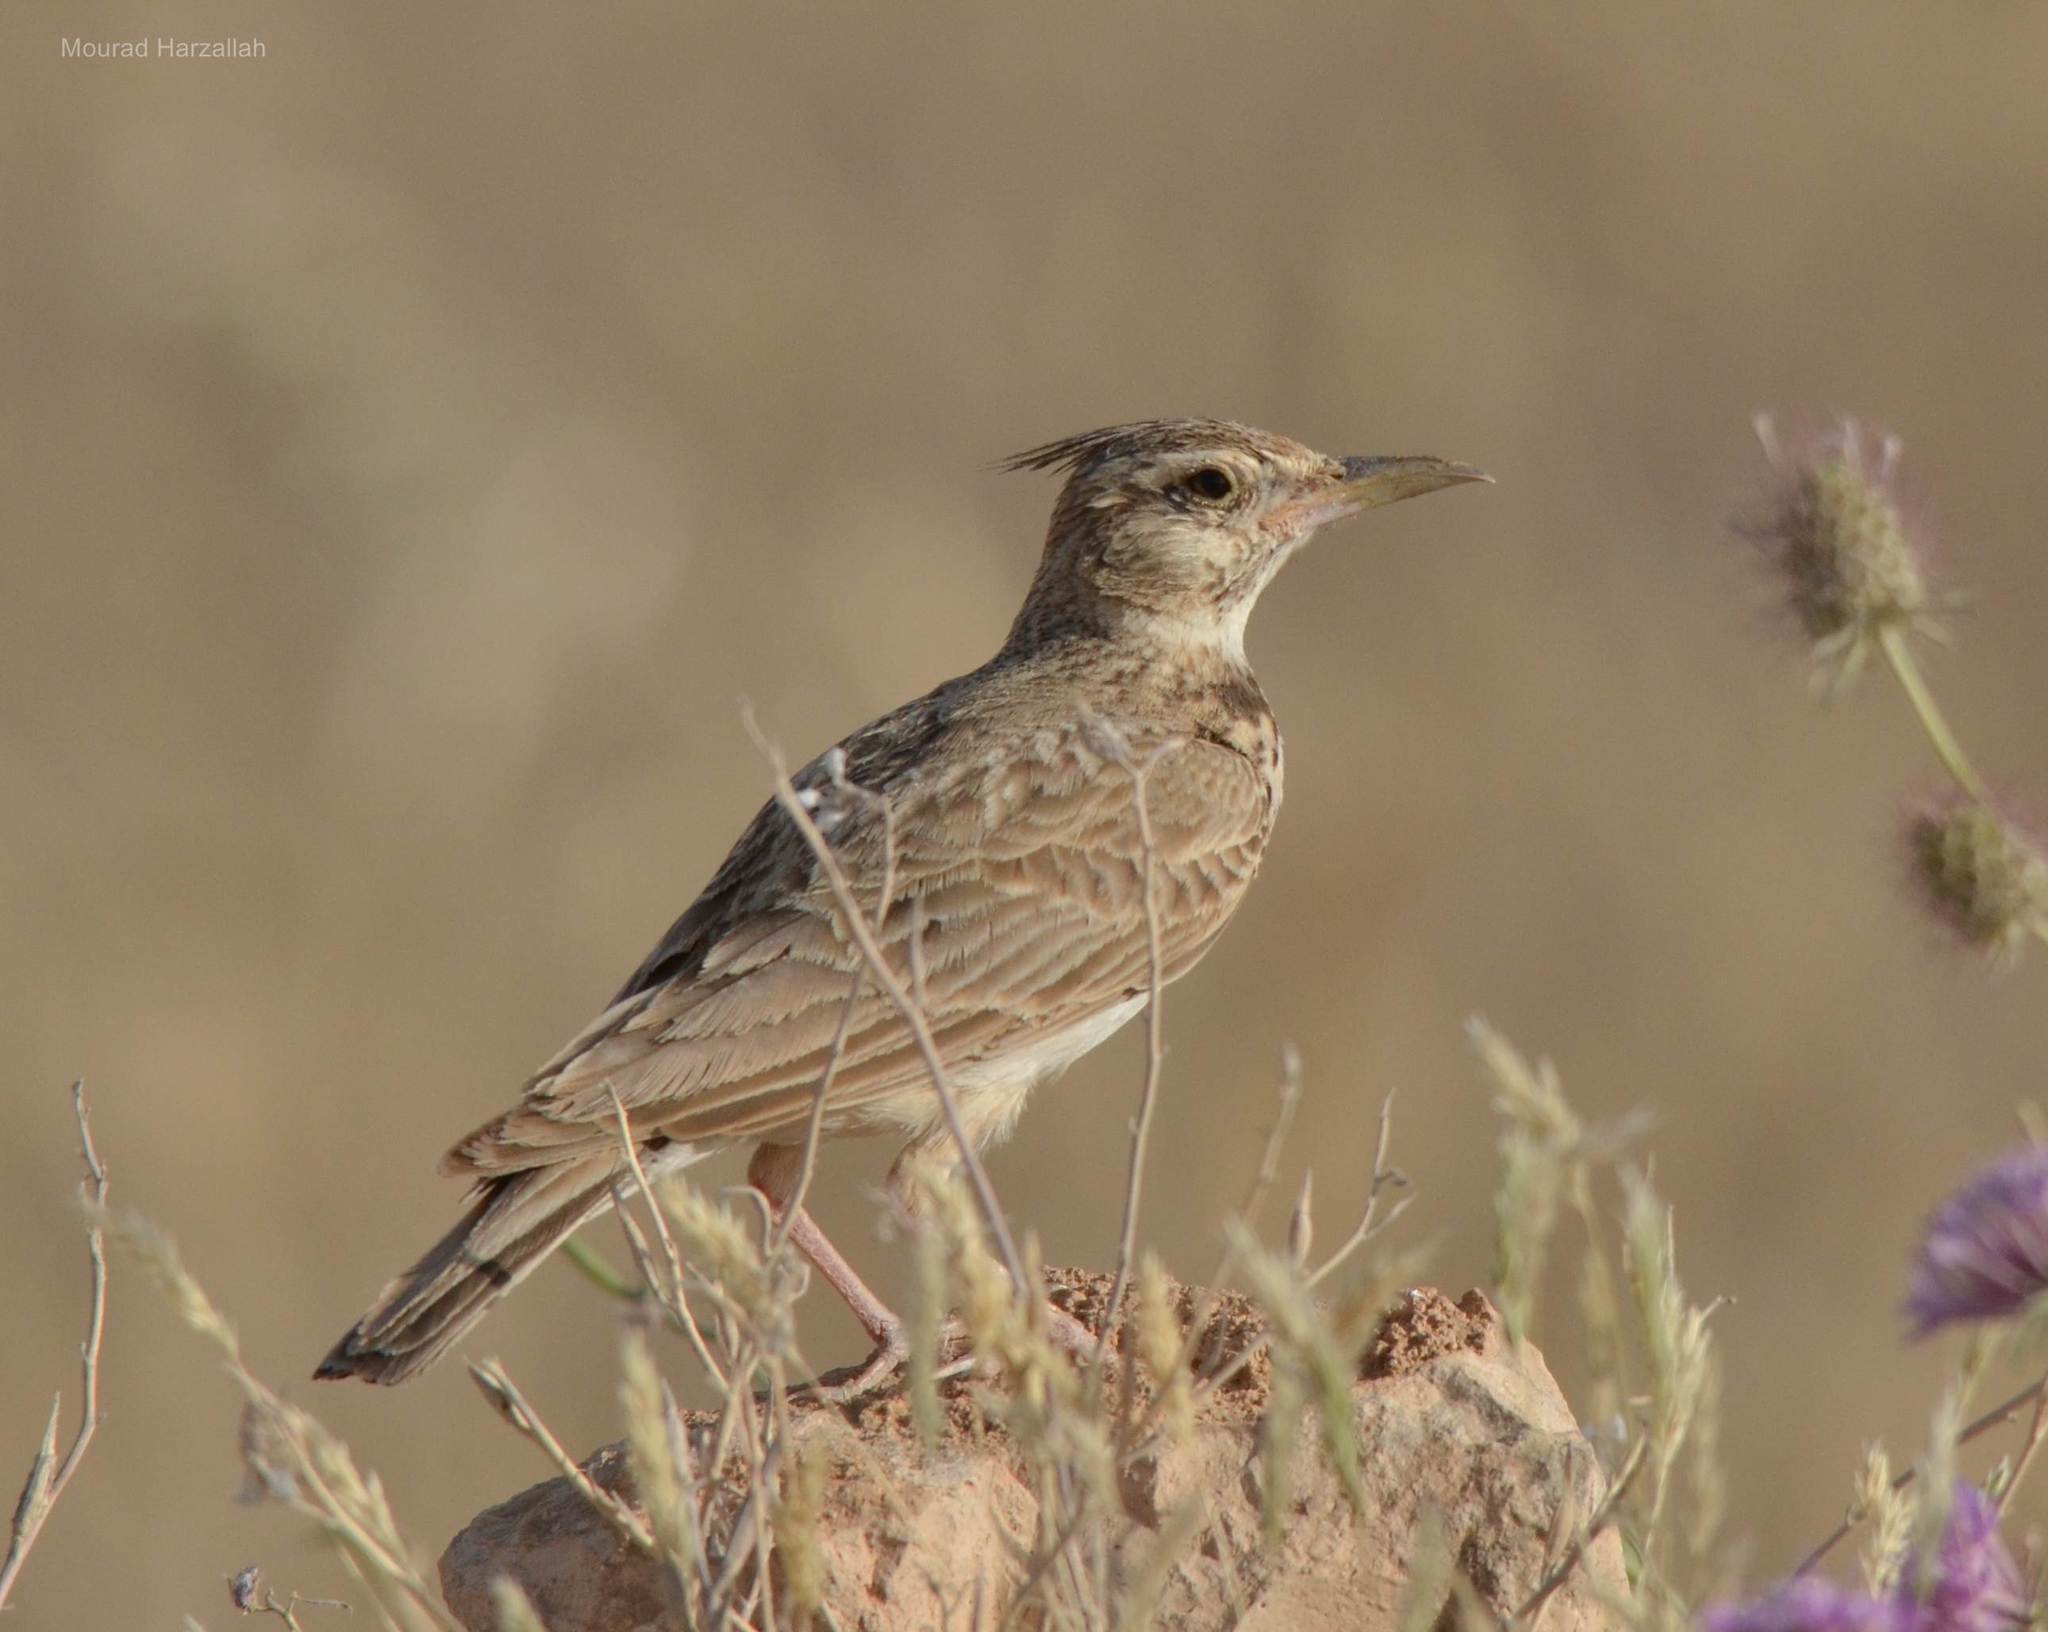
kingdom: Animalia
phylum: Chordata
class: Aves
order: Passeriformes
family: Alaudidae
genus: Galerida
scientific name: Galerida cristata
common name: Crested lark
